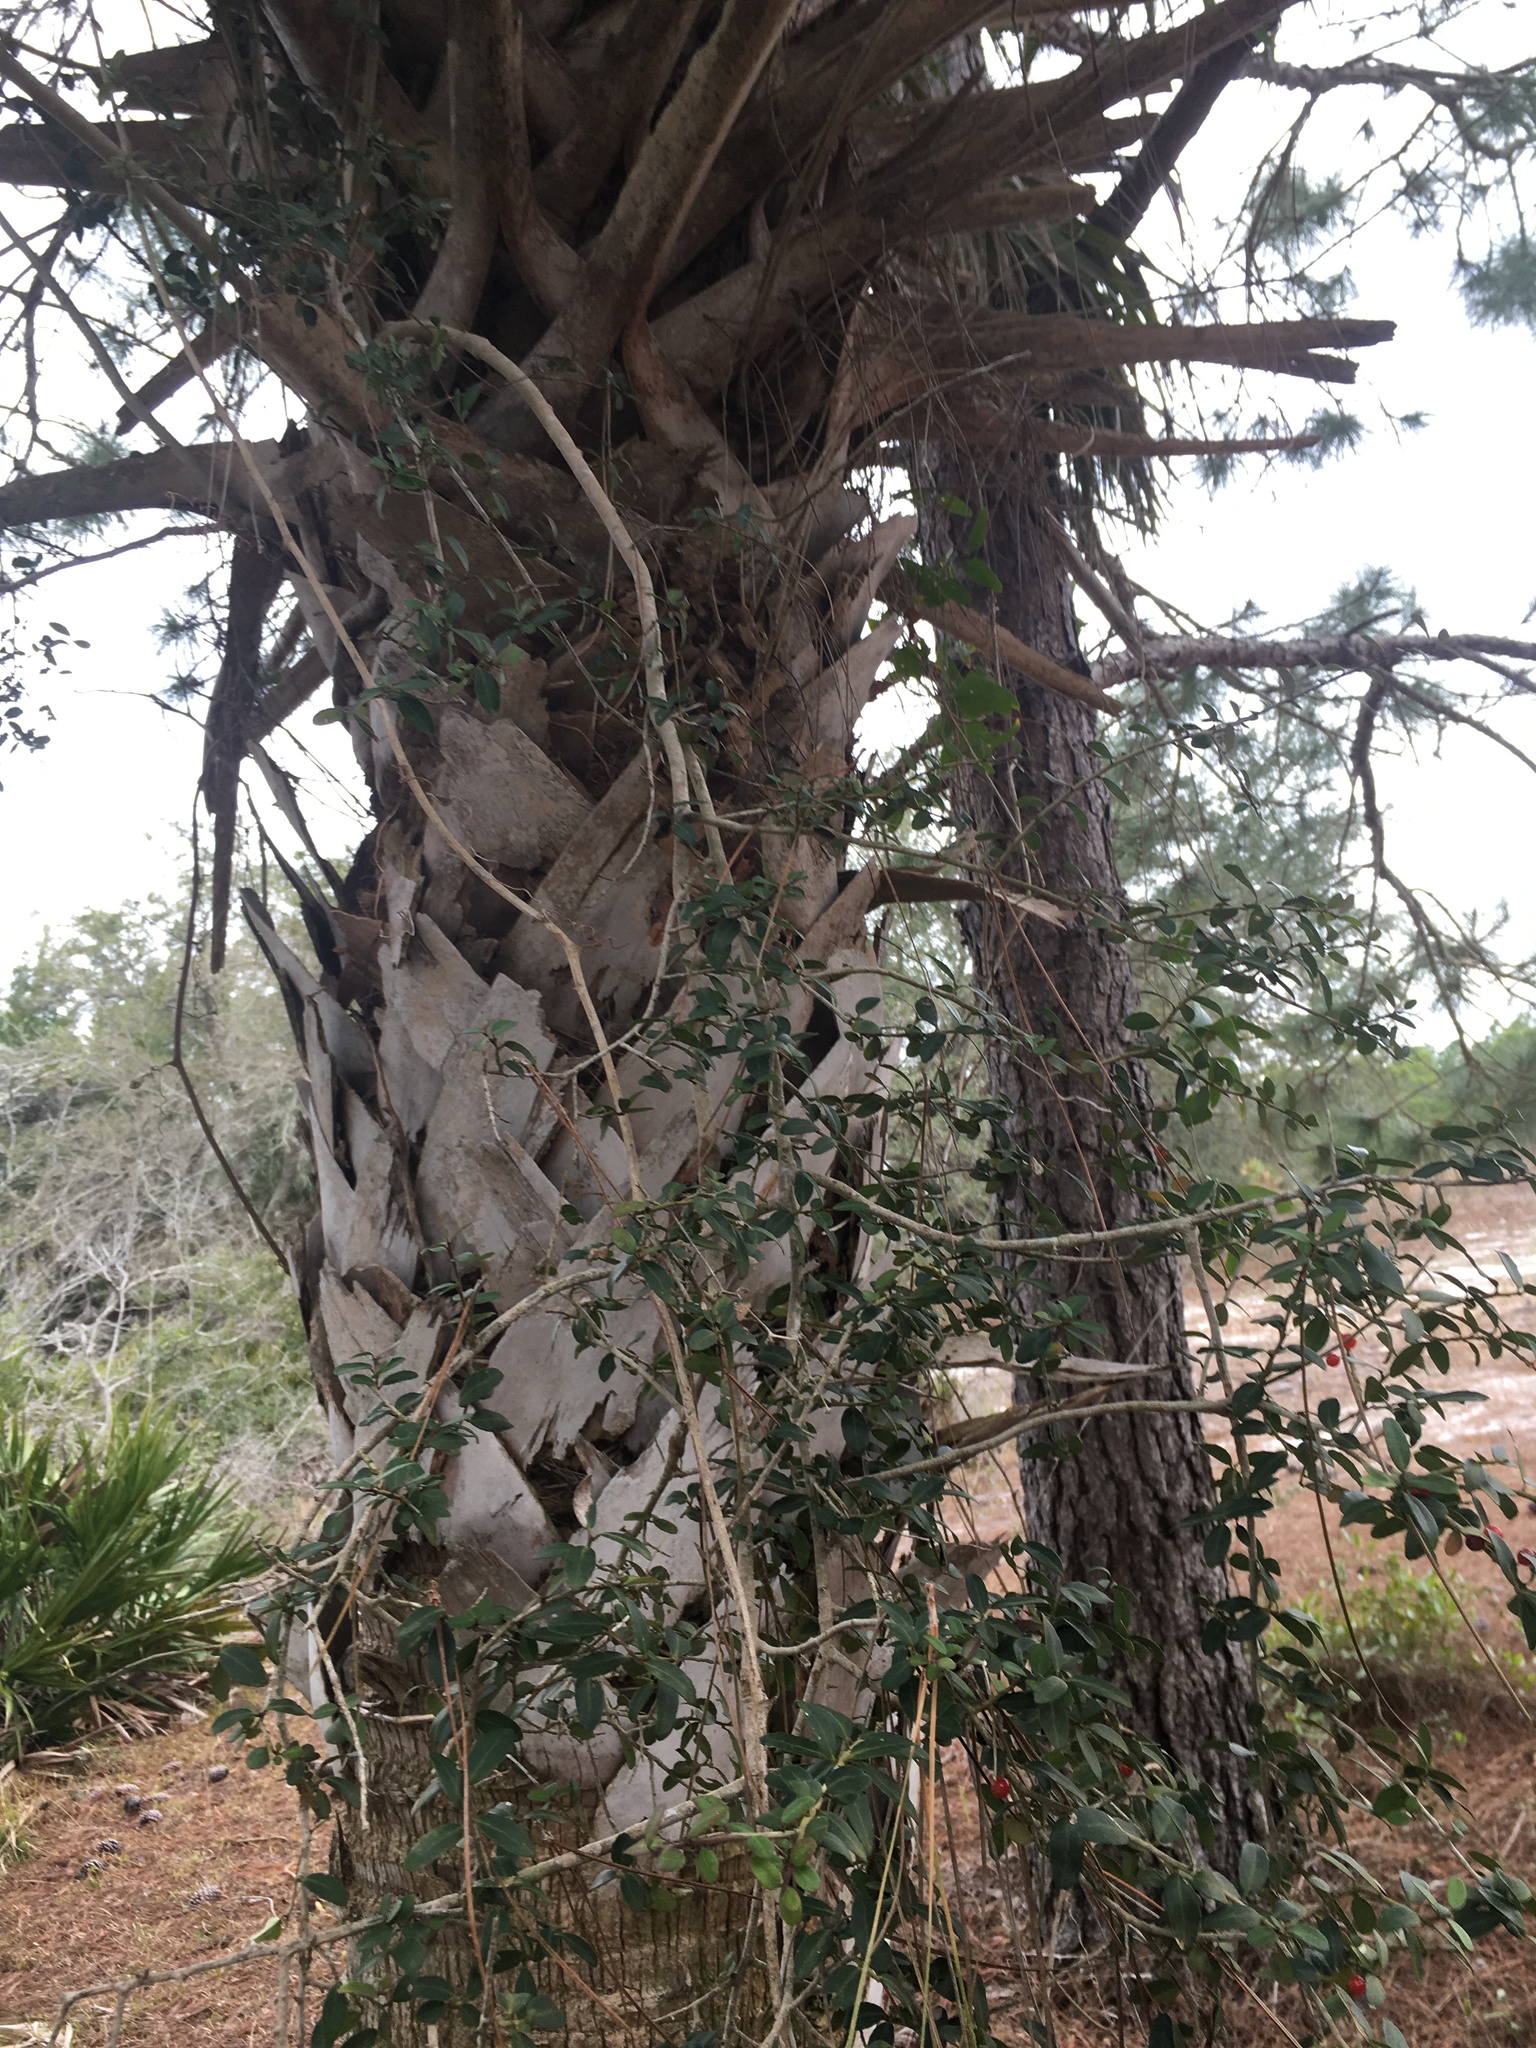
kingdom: Plantae
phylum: Tracheophyta
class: Magnoliopsida
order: Aquifoliales
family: Aquifoliaceae
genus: Ilex
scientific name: Ilex vomitoria
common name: Yaupon holly
